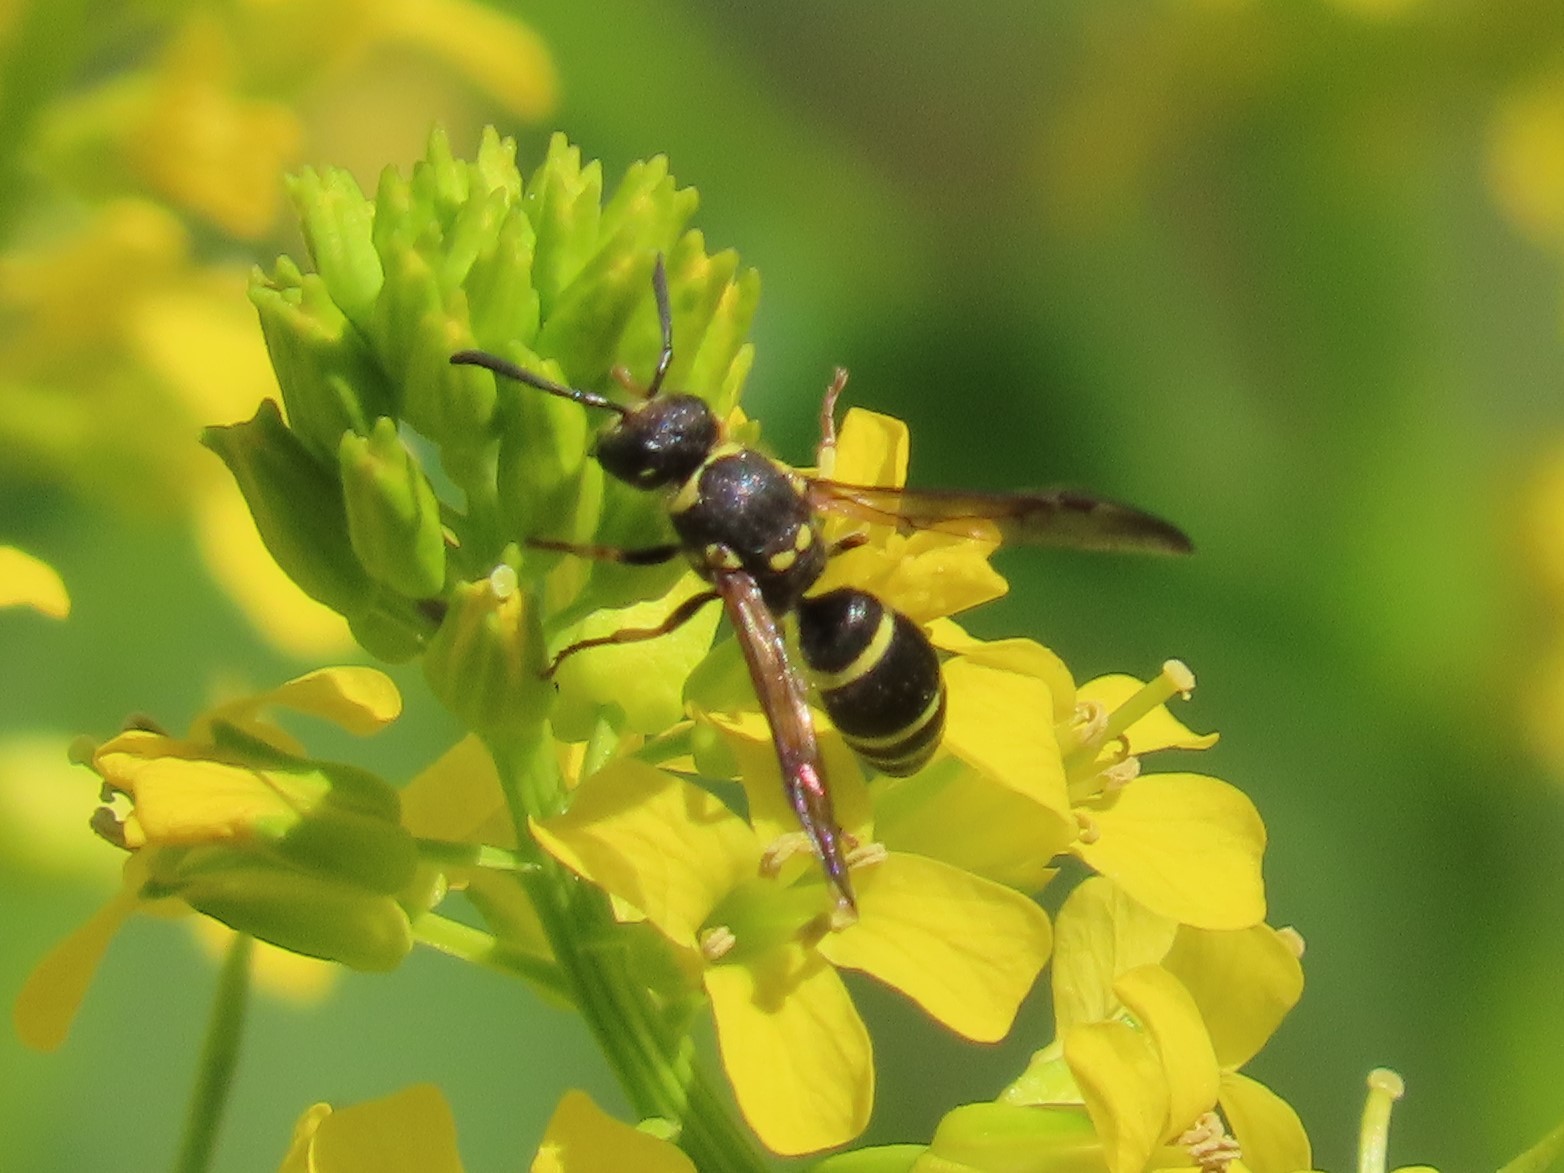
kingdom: Animalia
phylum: Arthropoda
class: Insecta
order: Hymenoptera
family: Vespidae
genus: Ancistrocerus
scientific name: Ancistrocerus
